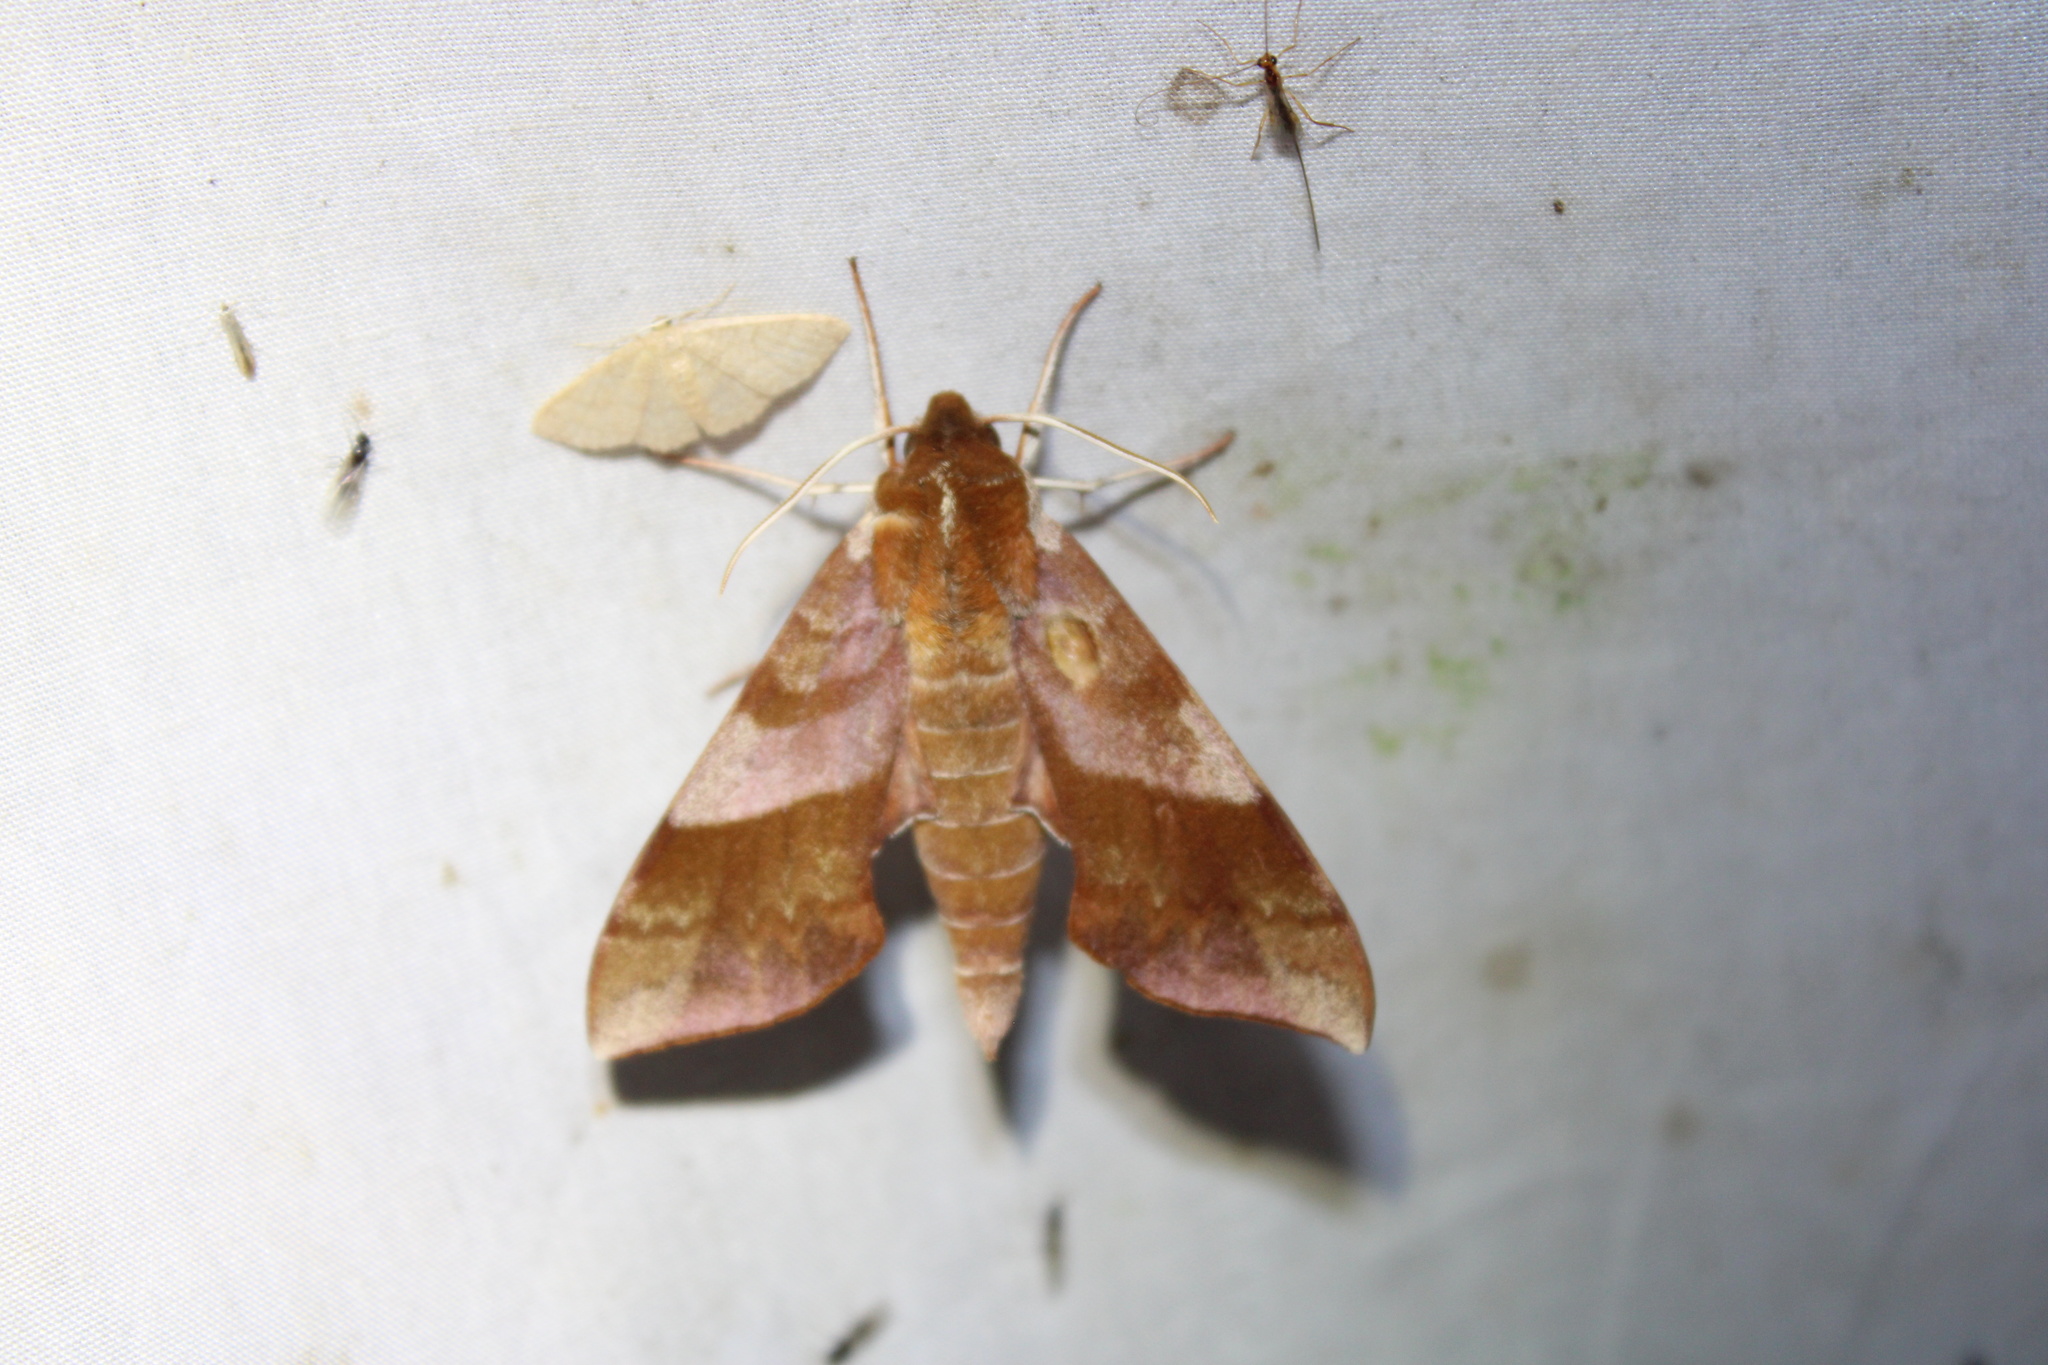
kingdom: Animalia
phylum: Arthropoda
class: Insecta
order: Lepidoptera
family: Sphingidae
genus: Darapsa
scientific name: Darapsa choerilus
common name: Azalea sphinx
